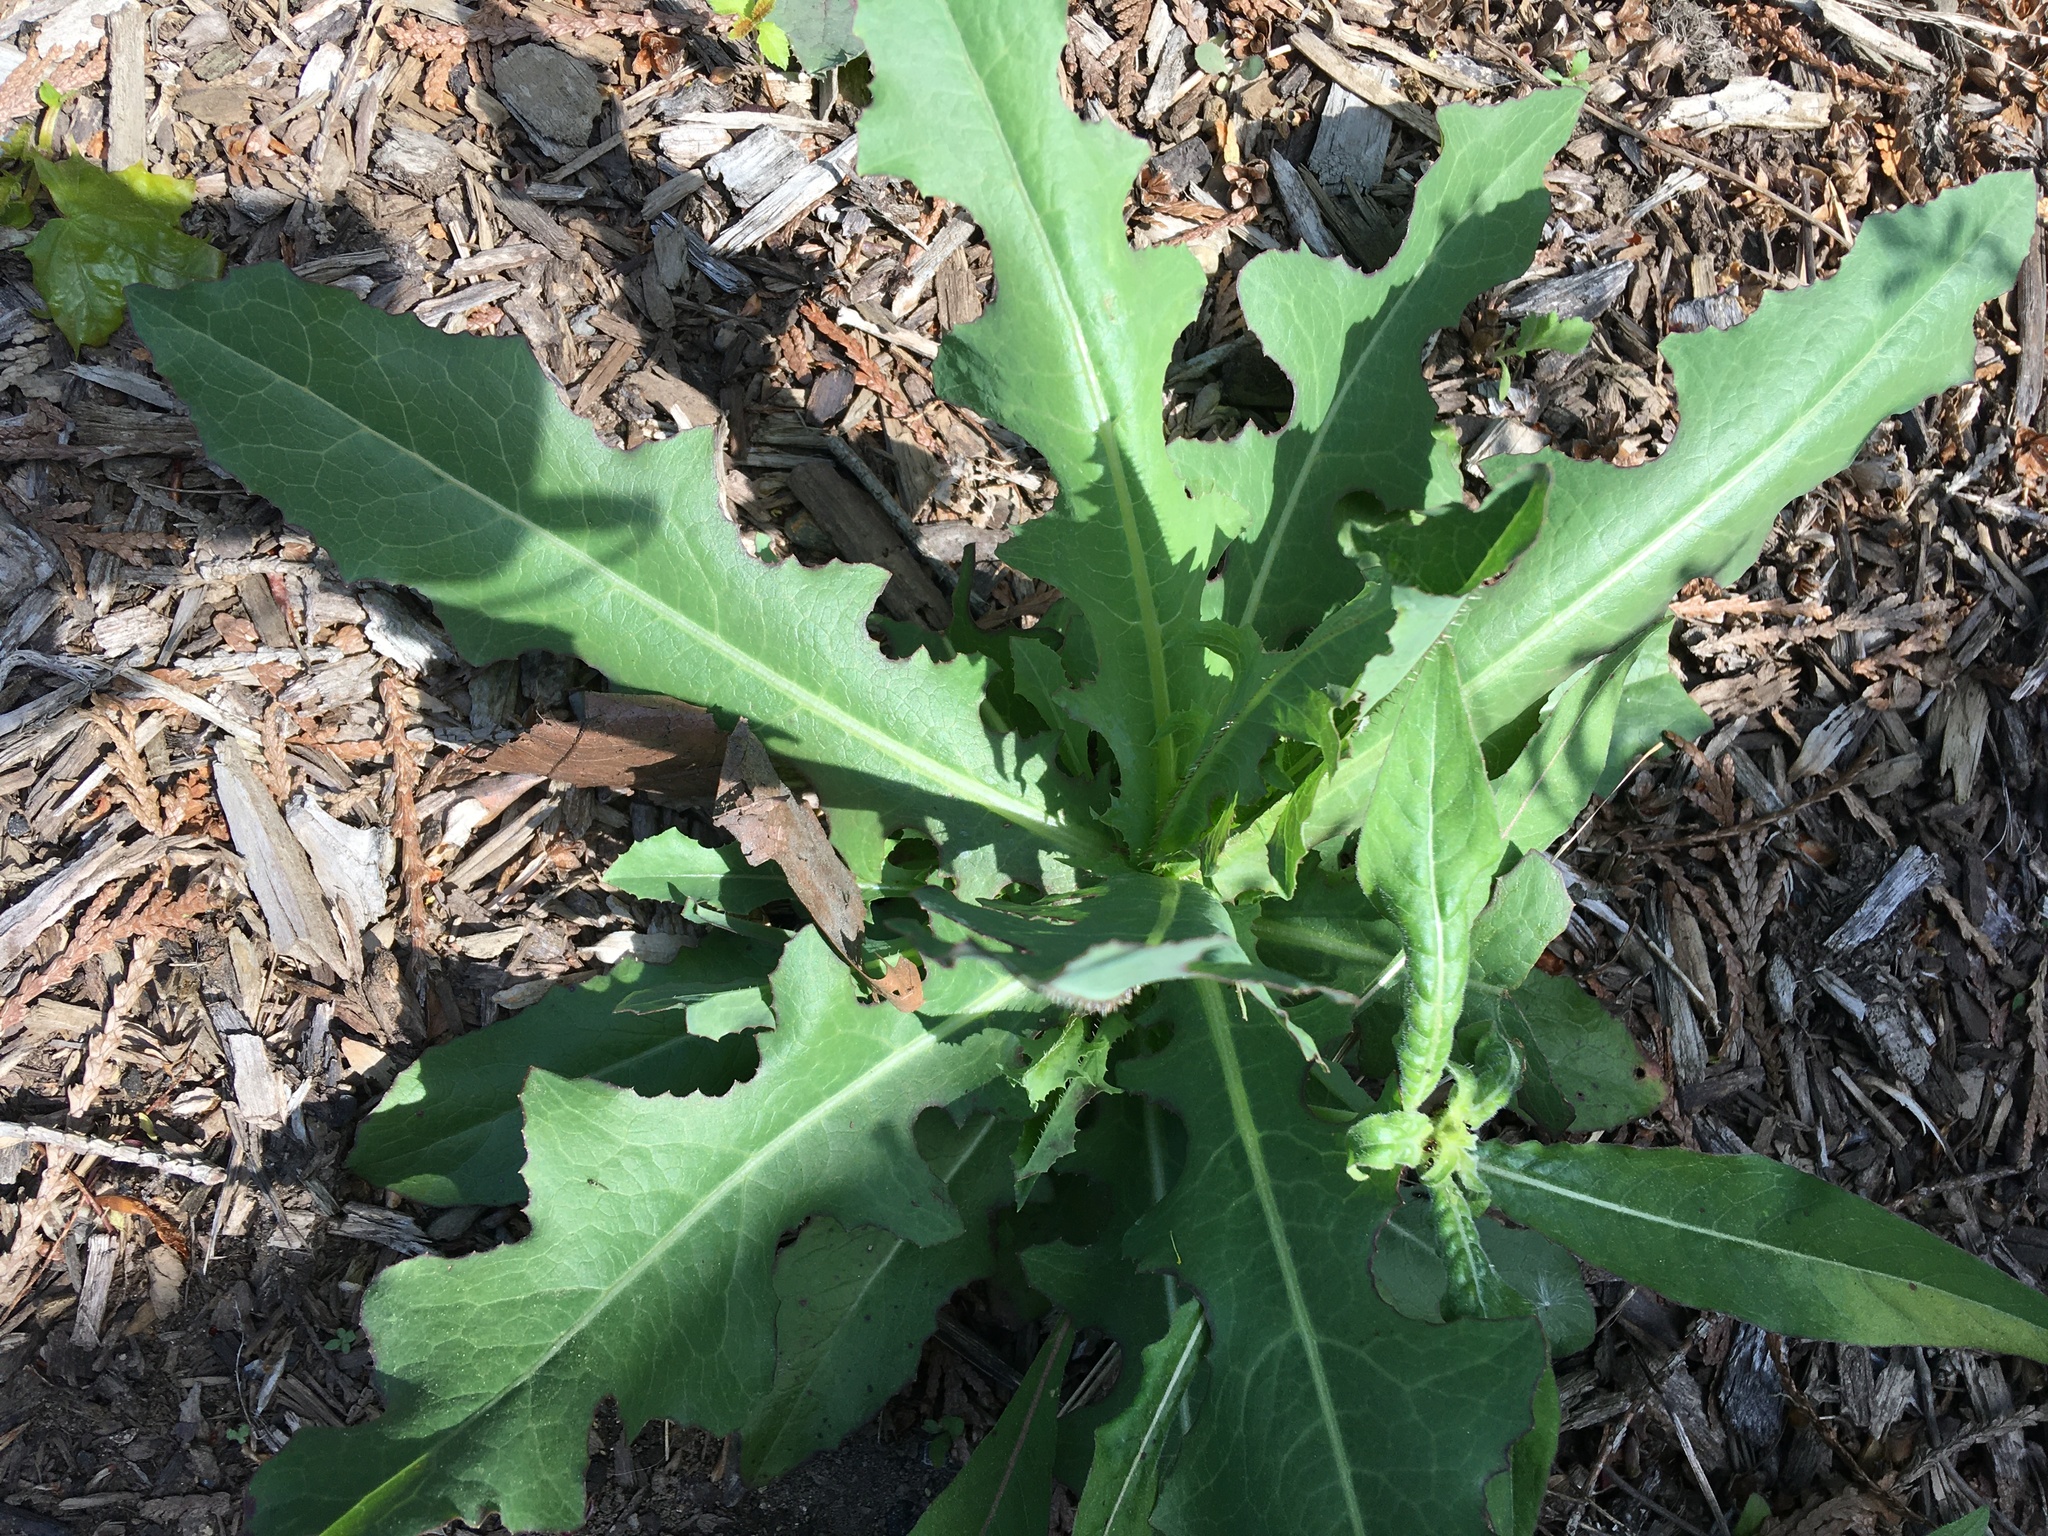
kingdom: Plantae
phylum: Tracheophyta
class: Magnoliopsida
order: Asterales
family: Asteraceae
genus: Lactuca
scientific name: Lactuca serriola
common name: Prickly lettuce
